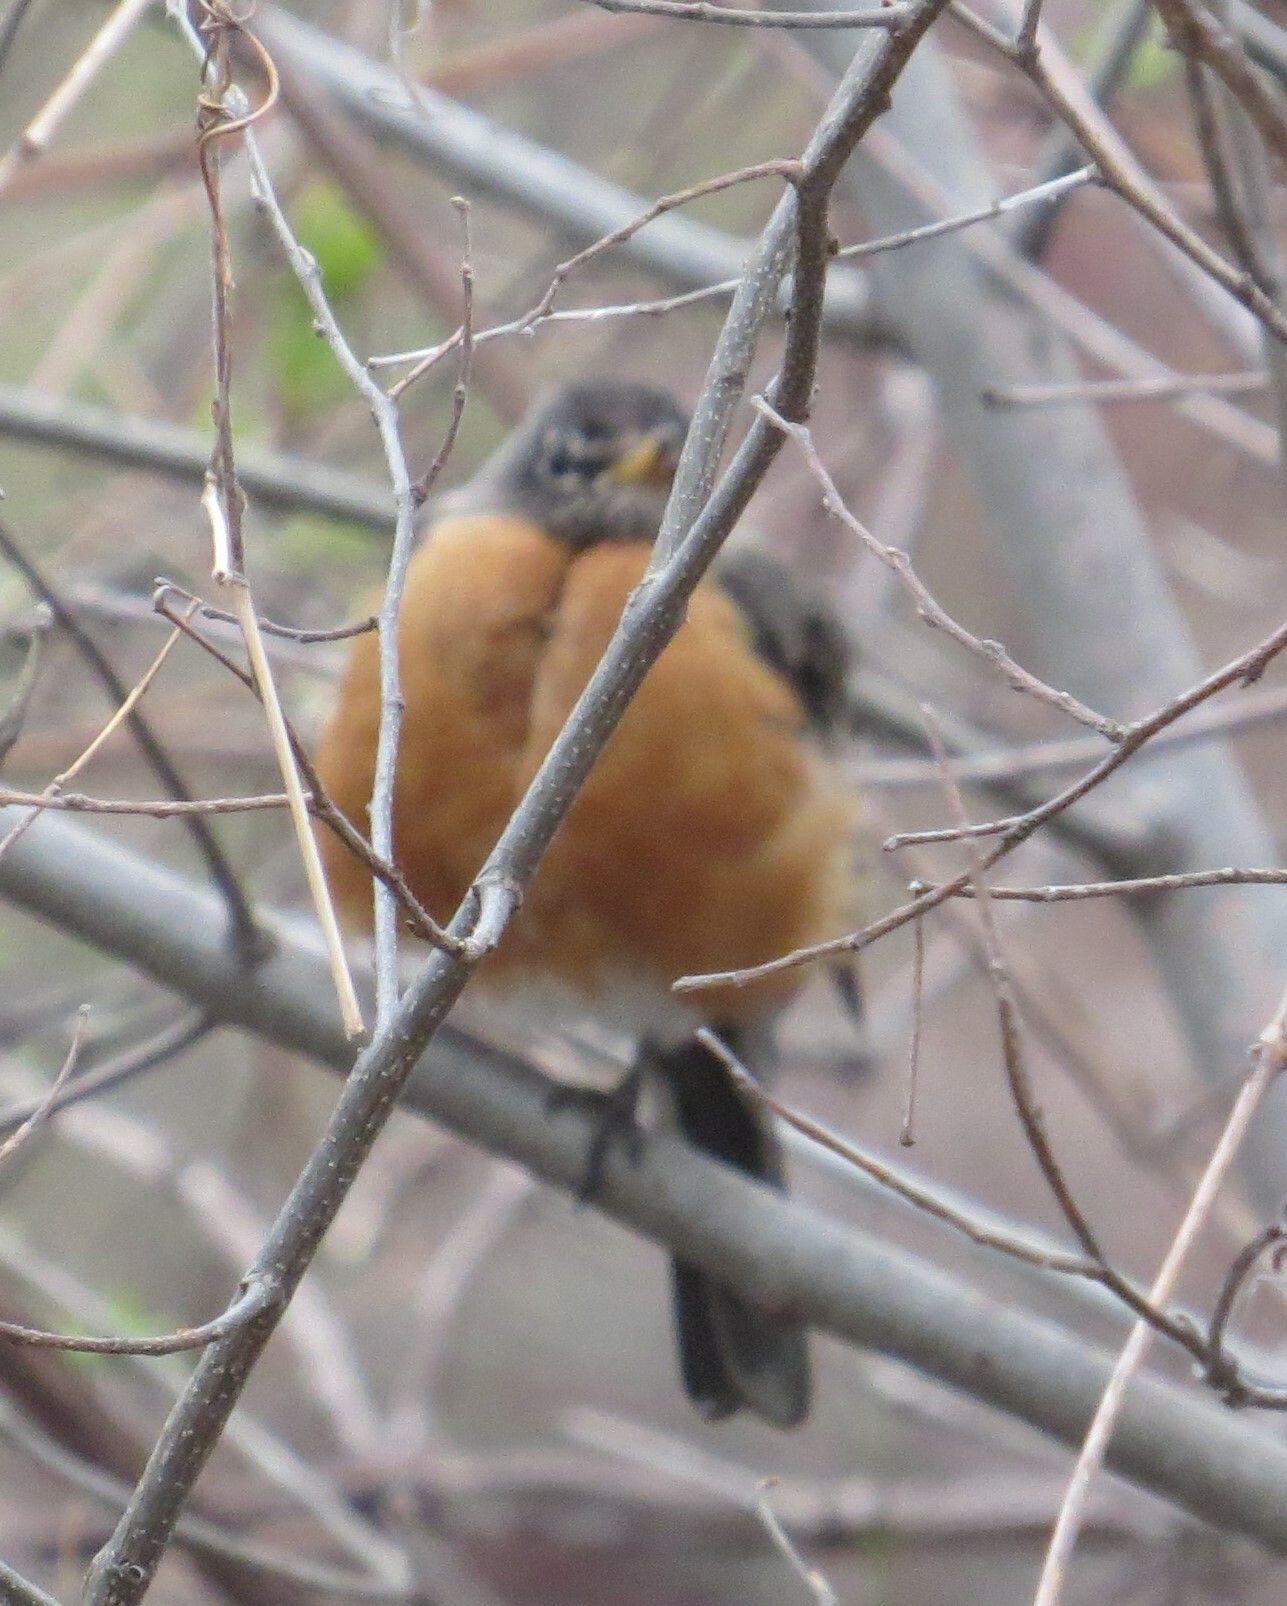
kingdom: Animalia
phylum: Chordata
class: Aves
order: Passeriformes
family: Turdidae
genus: Turdus
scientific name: Turdus migratorius
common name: American robin
